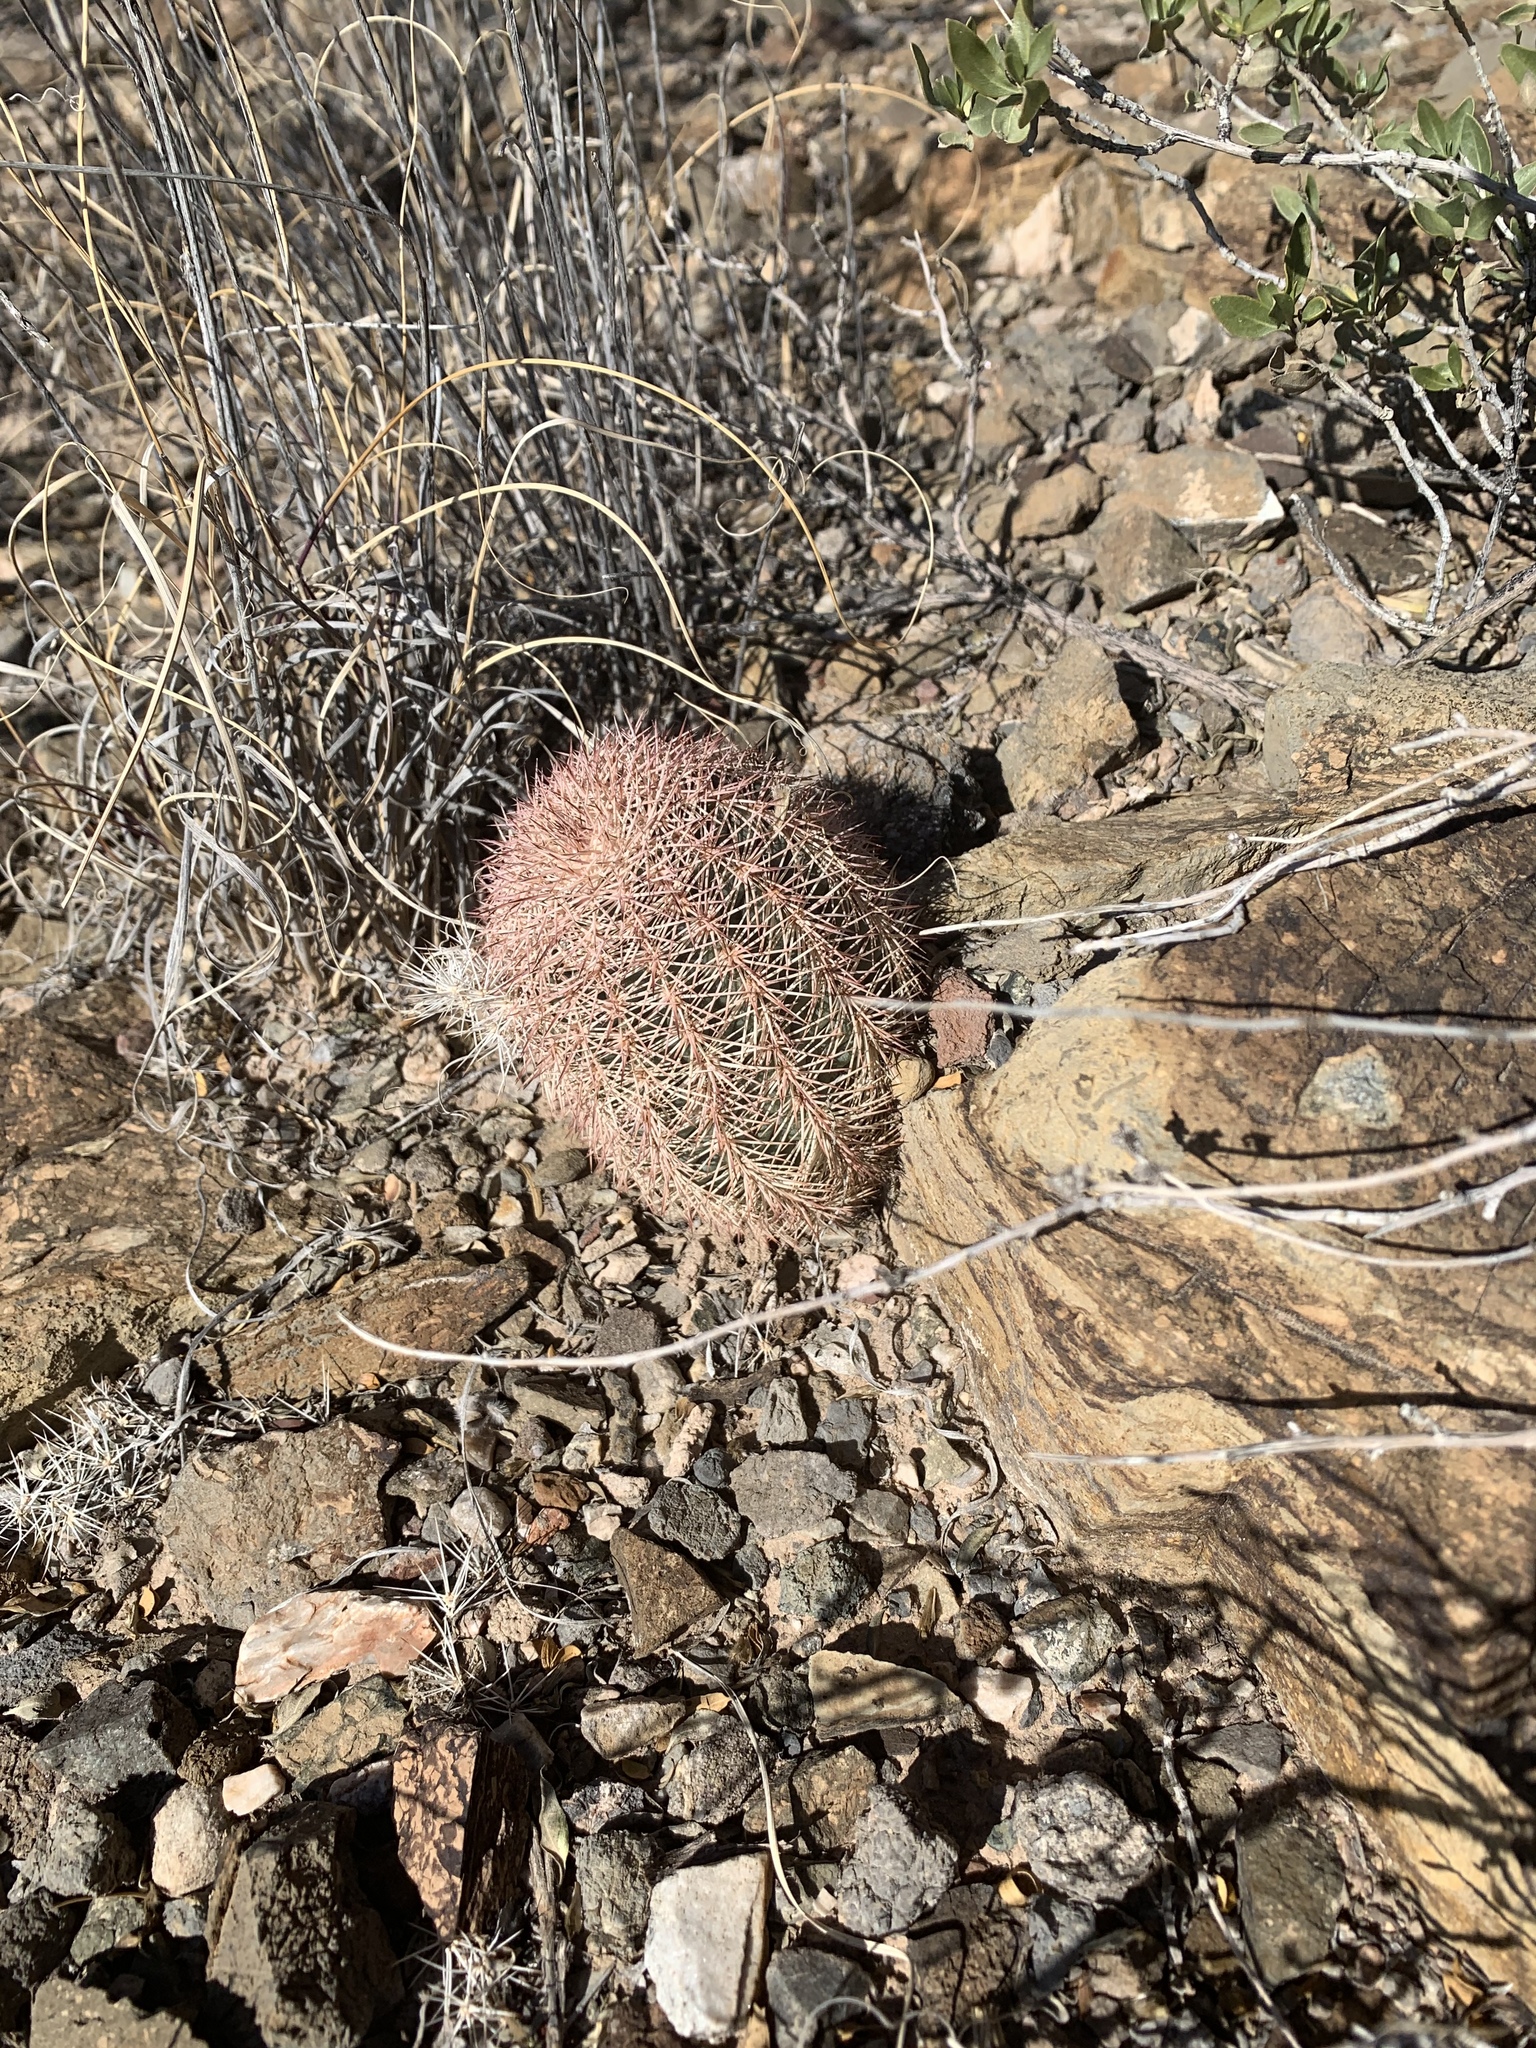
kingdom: Plantae
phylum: Tracheophyta
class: Magnoliopsida
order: Caryophyllales
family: Cactaceae
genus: Echinocereus
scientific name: Echinocereus dasyacanthus
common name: Spiny hedgehog cactus
